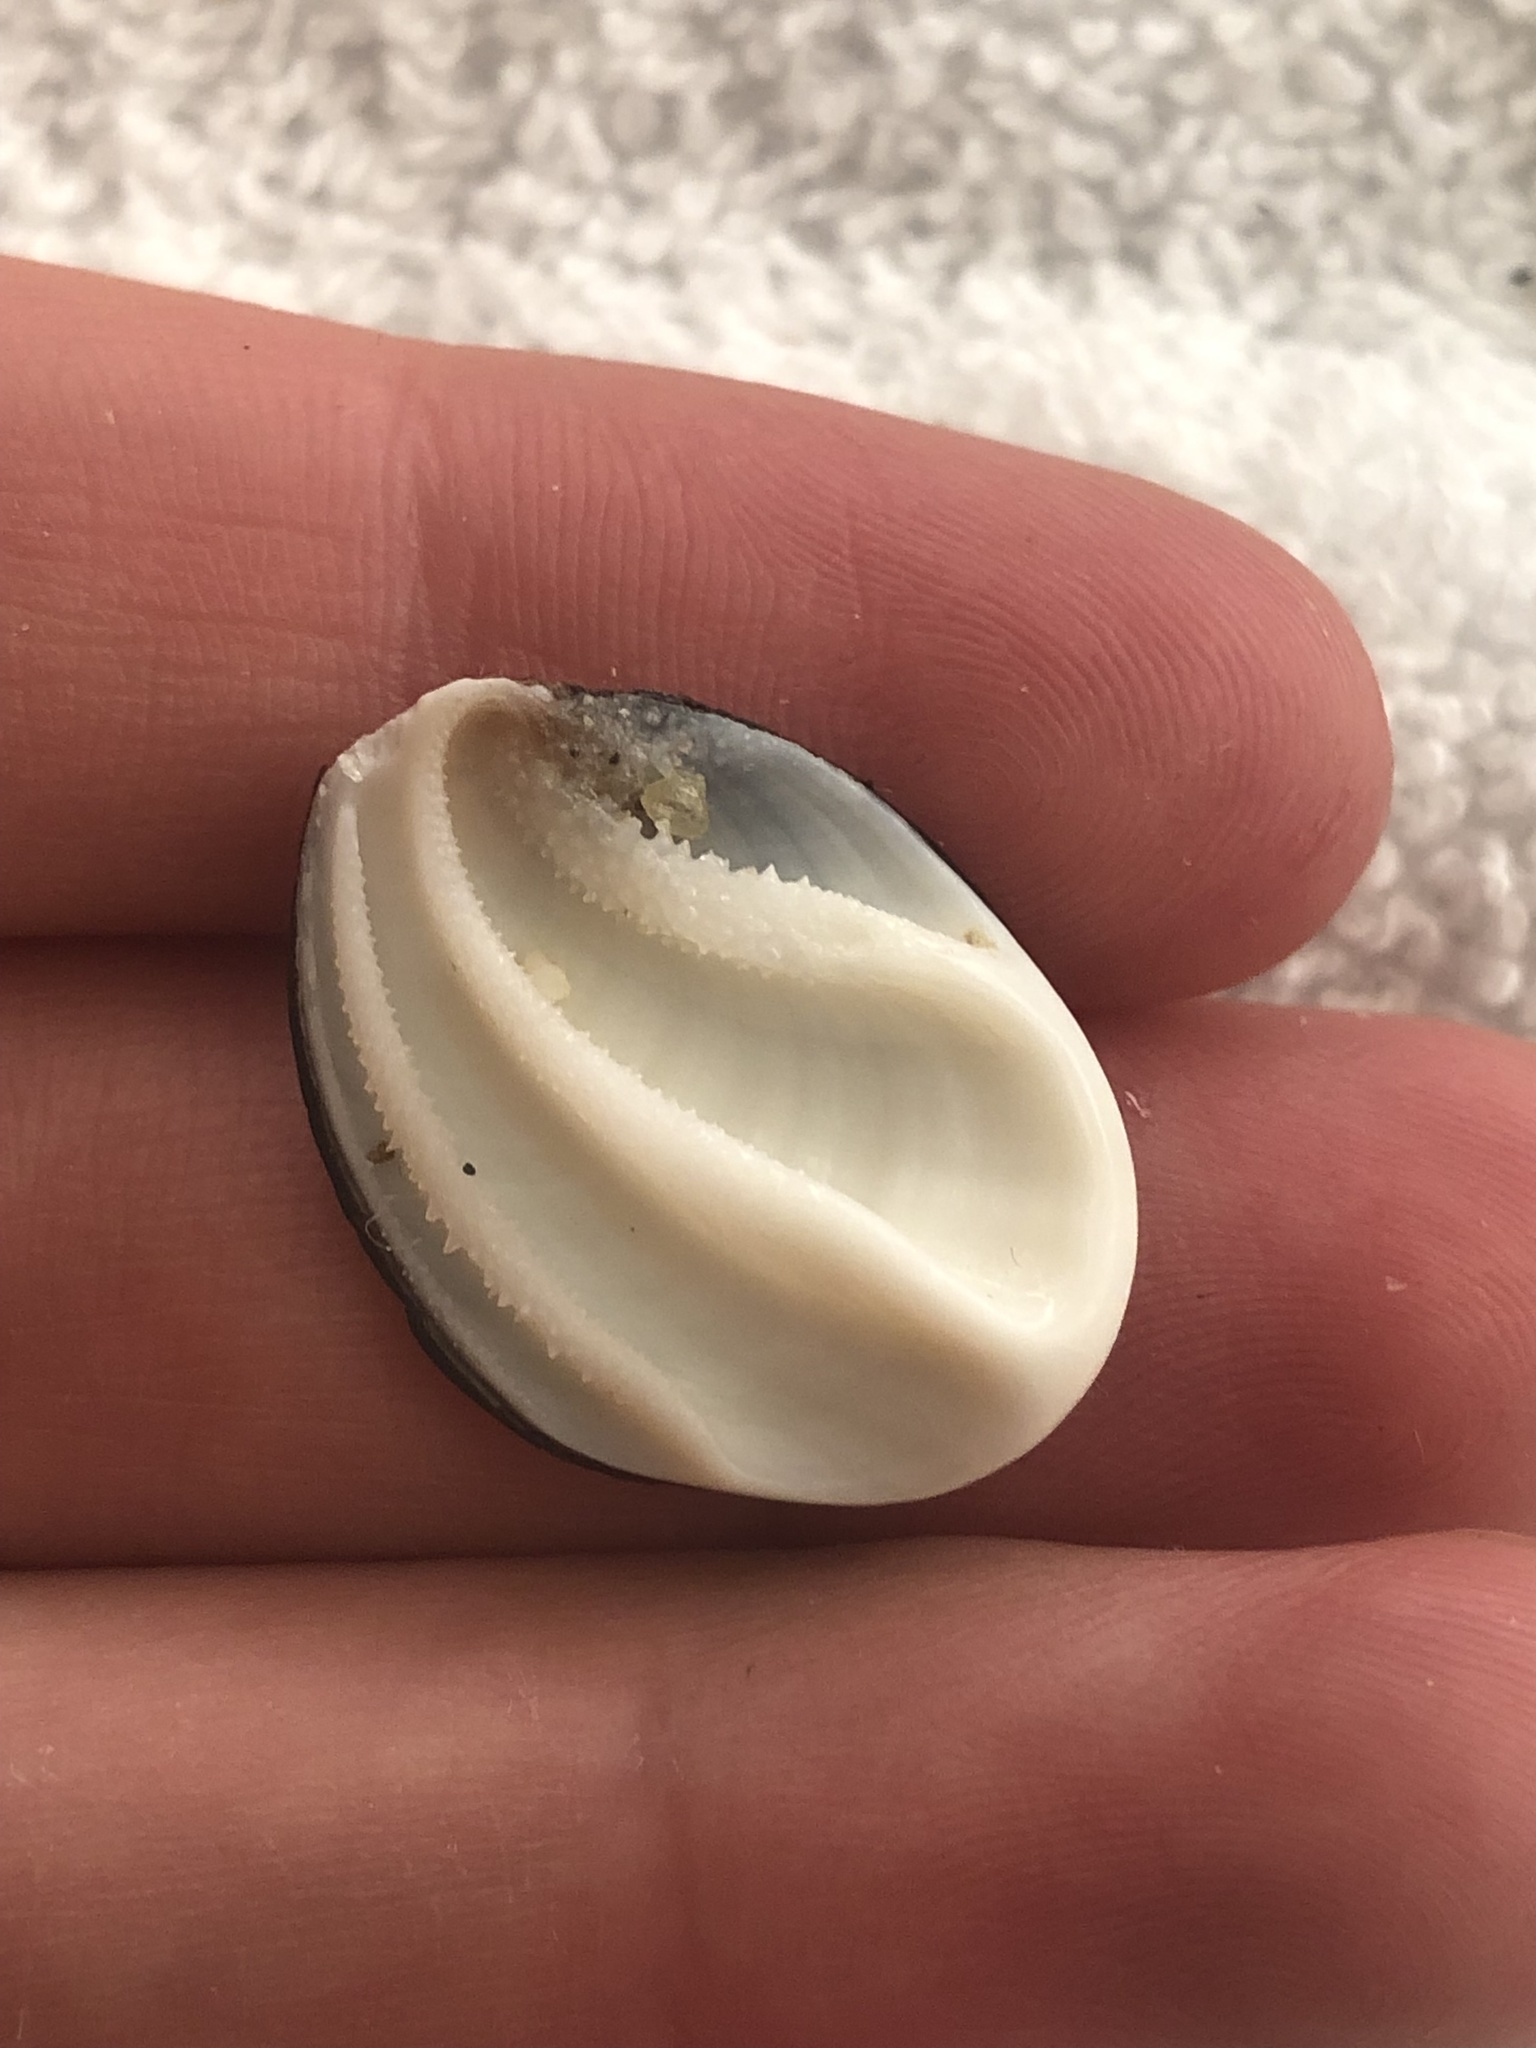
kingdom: Animalia
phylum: Mollusca
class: Gastropoda
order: Trochida
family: Turbinidae
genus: Megastraea
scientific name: Megastraea undosa
